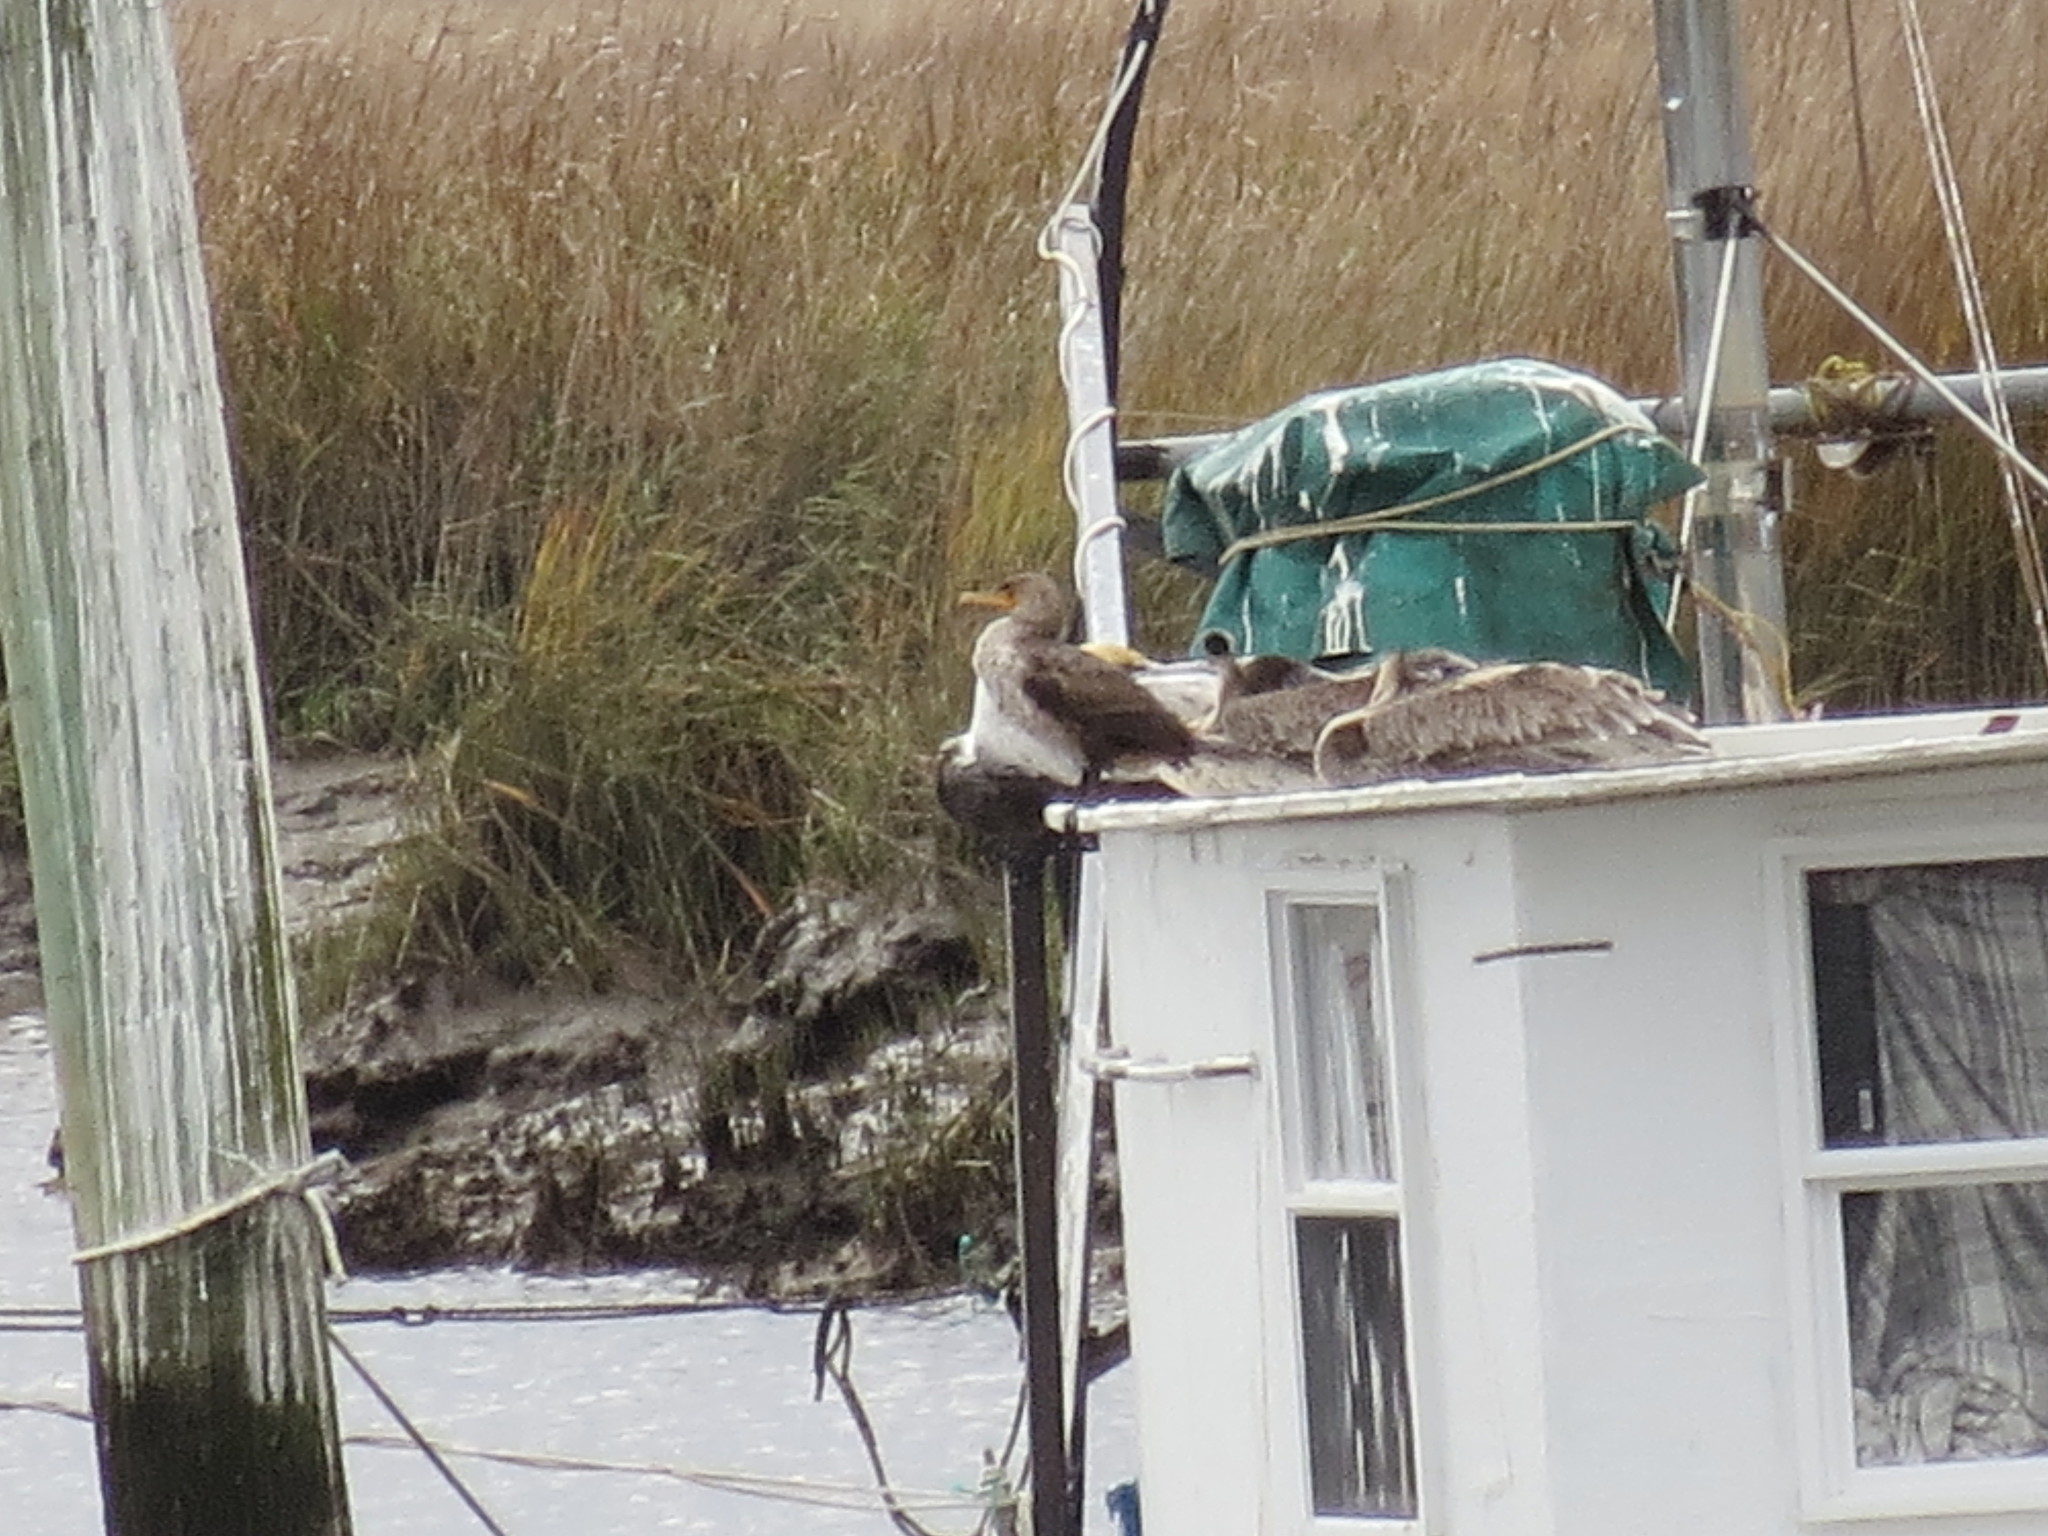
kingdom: Animalia
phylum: Chordata
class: Aves
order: Suliformes
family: Phalacrocoracidae
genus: Phalacrocorax
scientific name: Phalacrocorax auritus
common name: Double-crested cormorant
